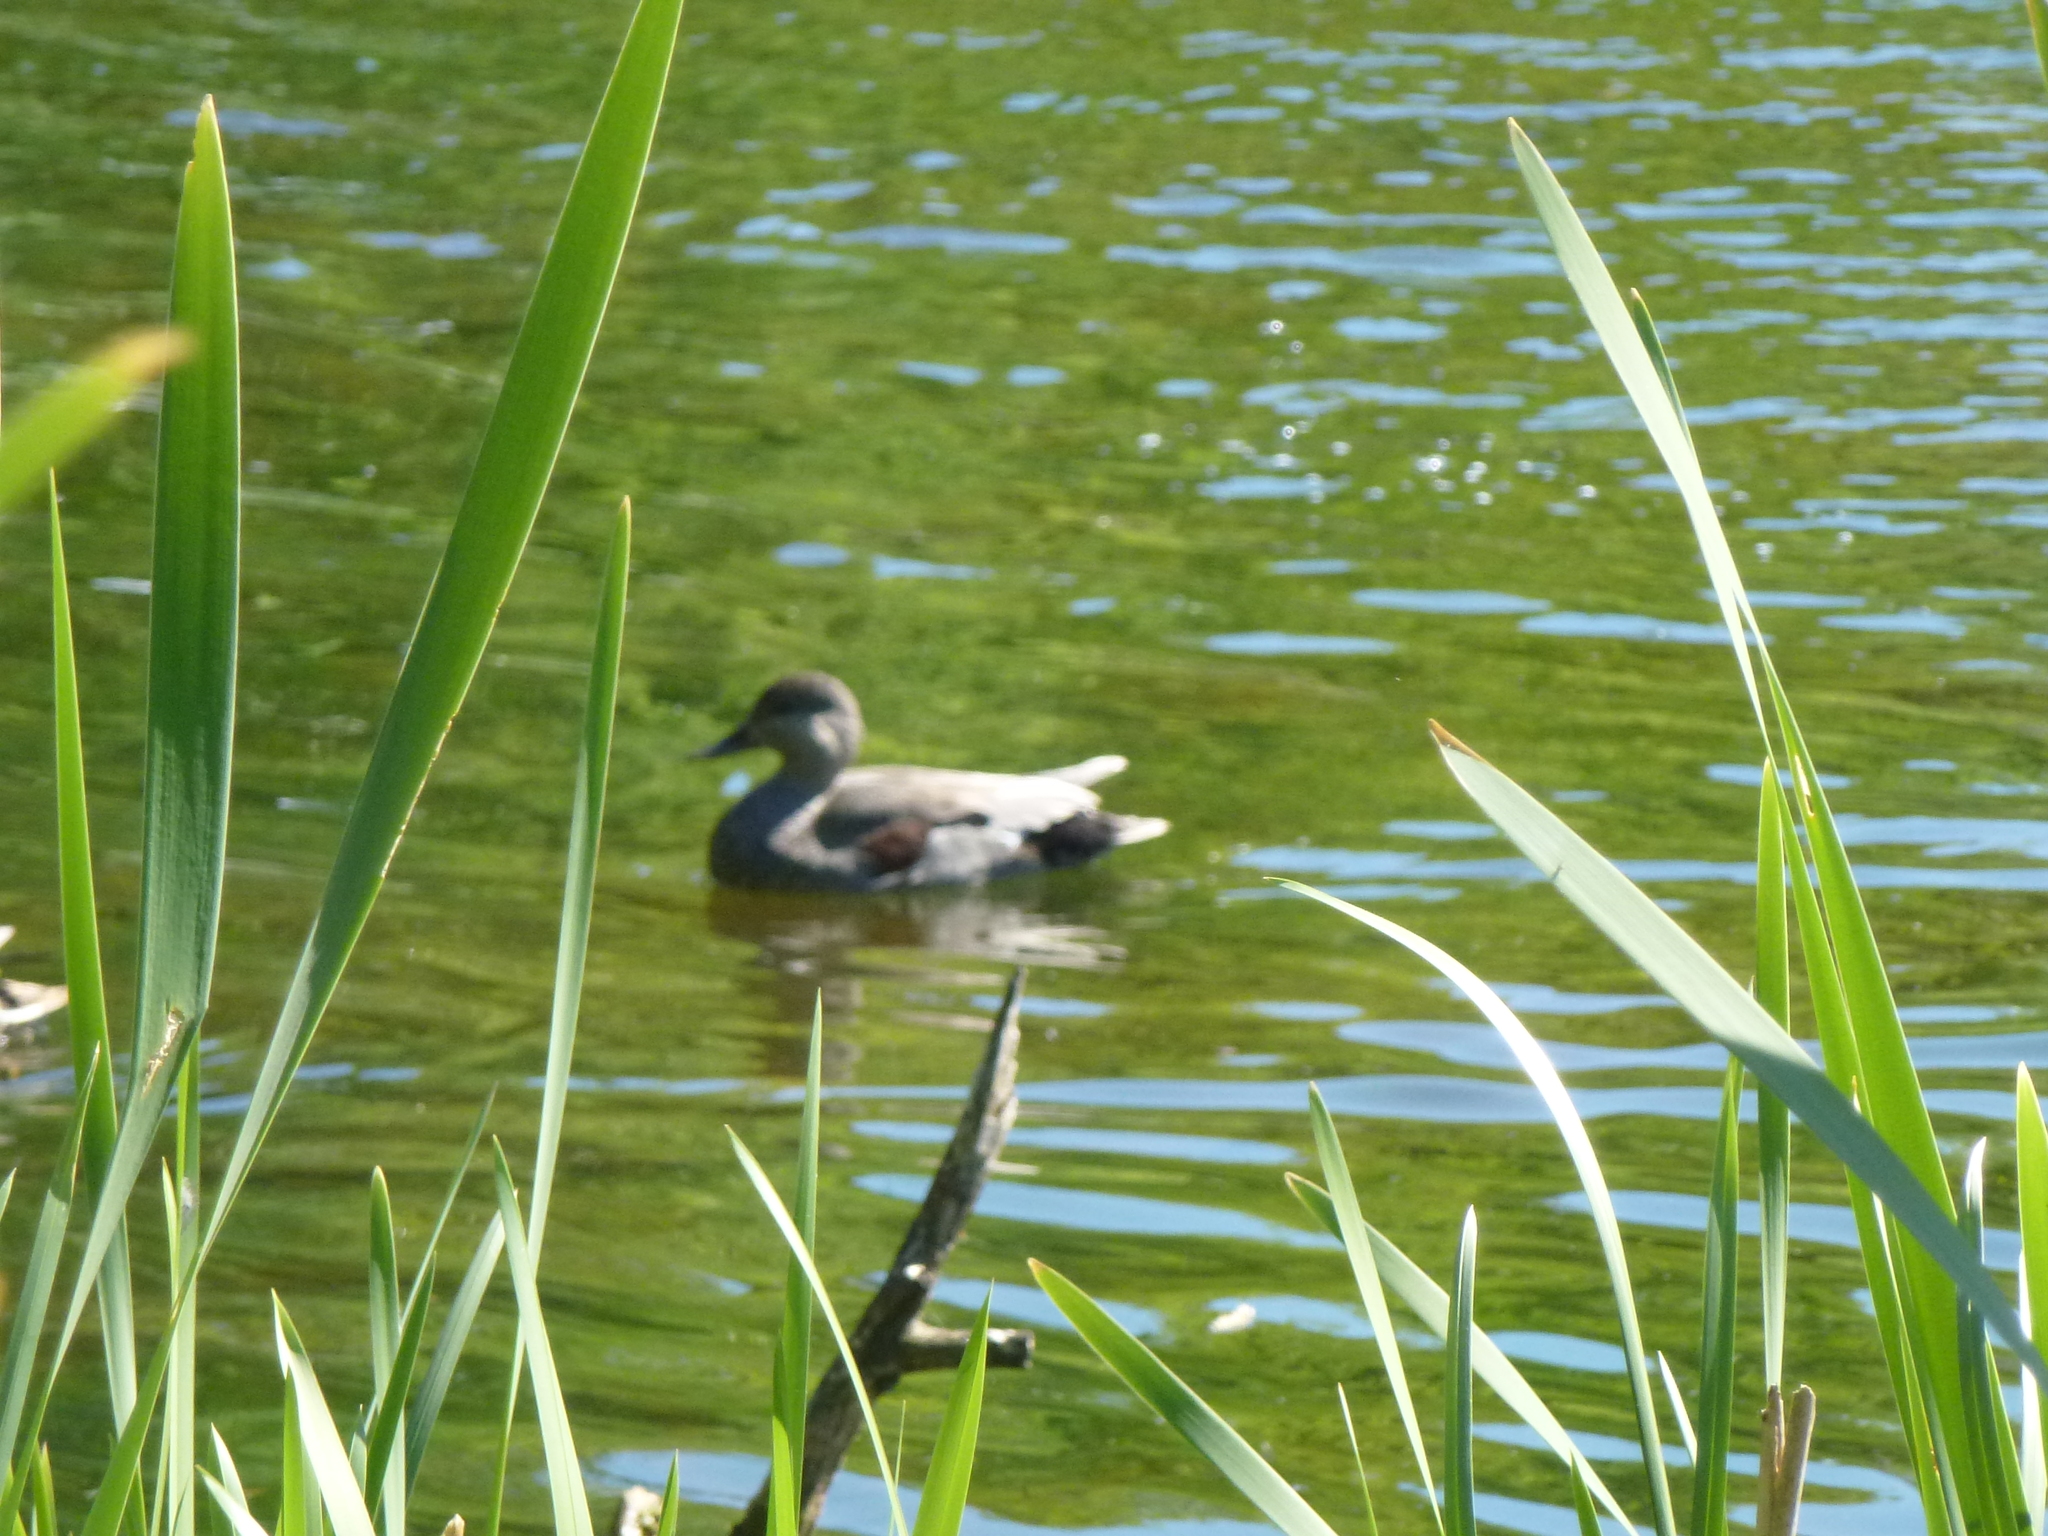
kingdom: Animalia
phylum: Chordata
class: Aves
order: Anseriformes
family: Anatidae
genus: Mareca
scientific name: Mareca strepera
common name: Gadwall
